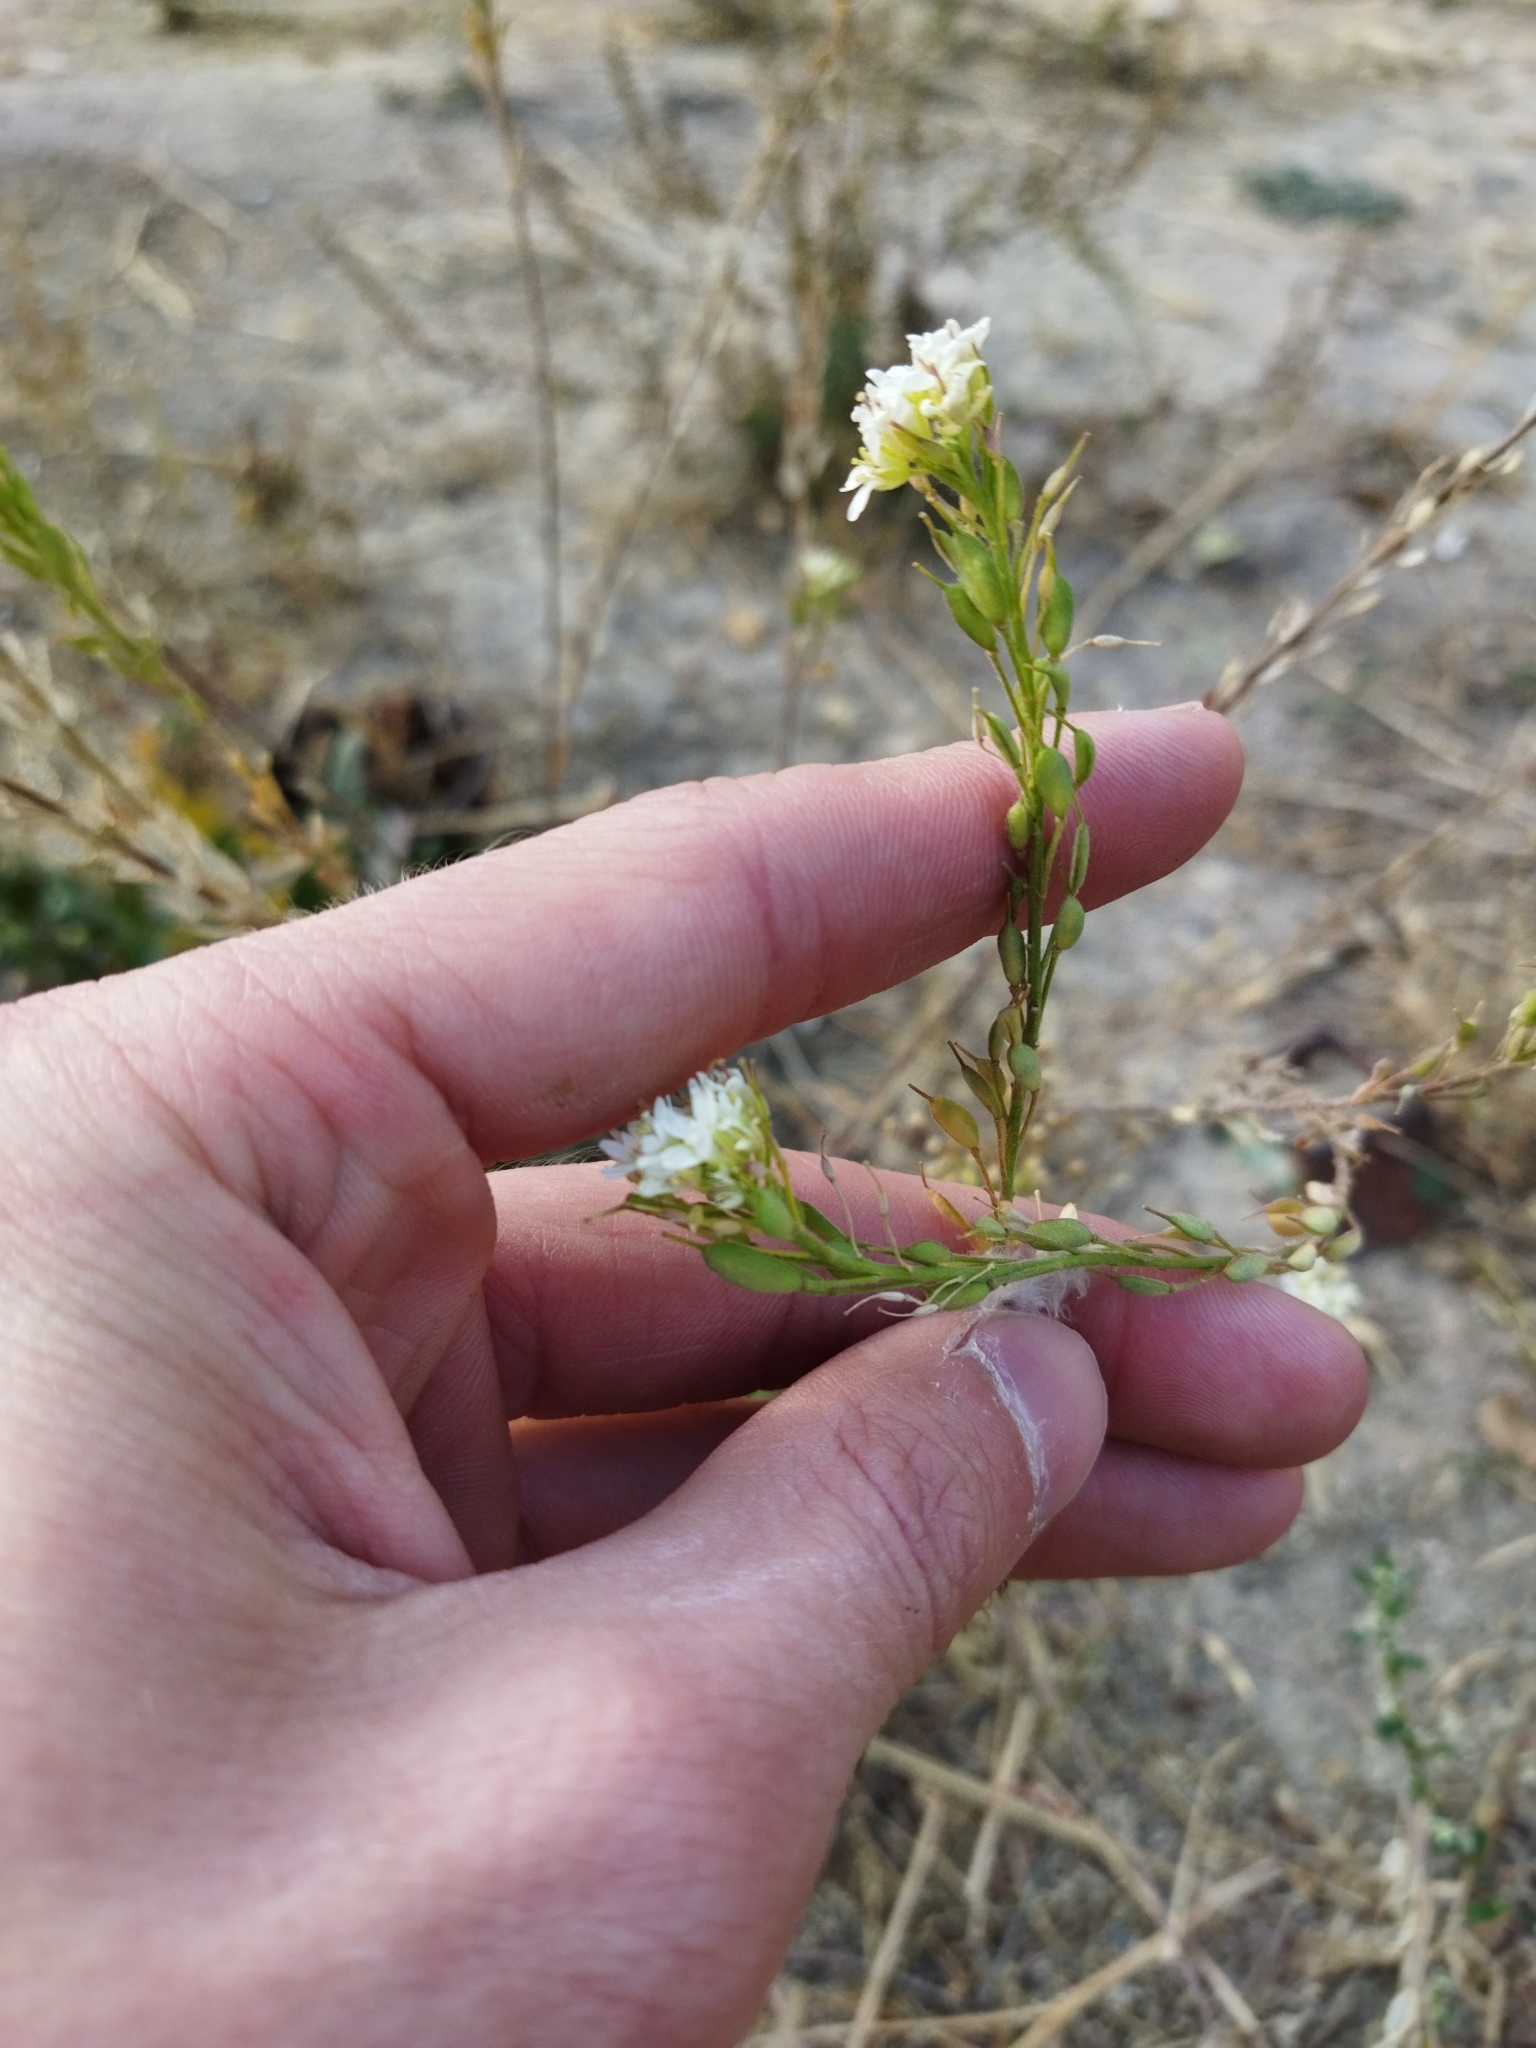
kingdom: Plantae
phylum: Tracheophyta
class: Magnoliopsida
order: Brassicales
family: Brassicaceae
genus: Berteroa
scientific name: Berteroa incana
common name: Hoary alison
